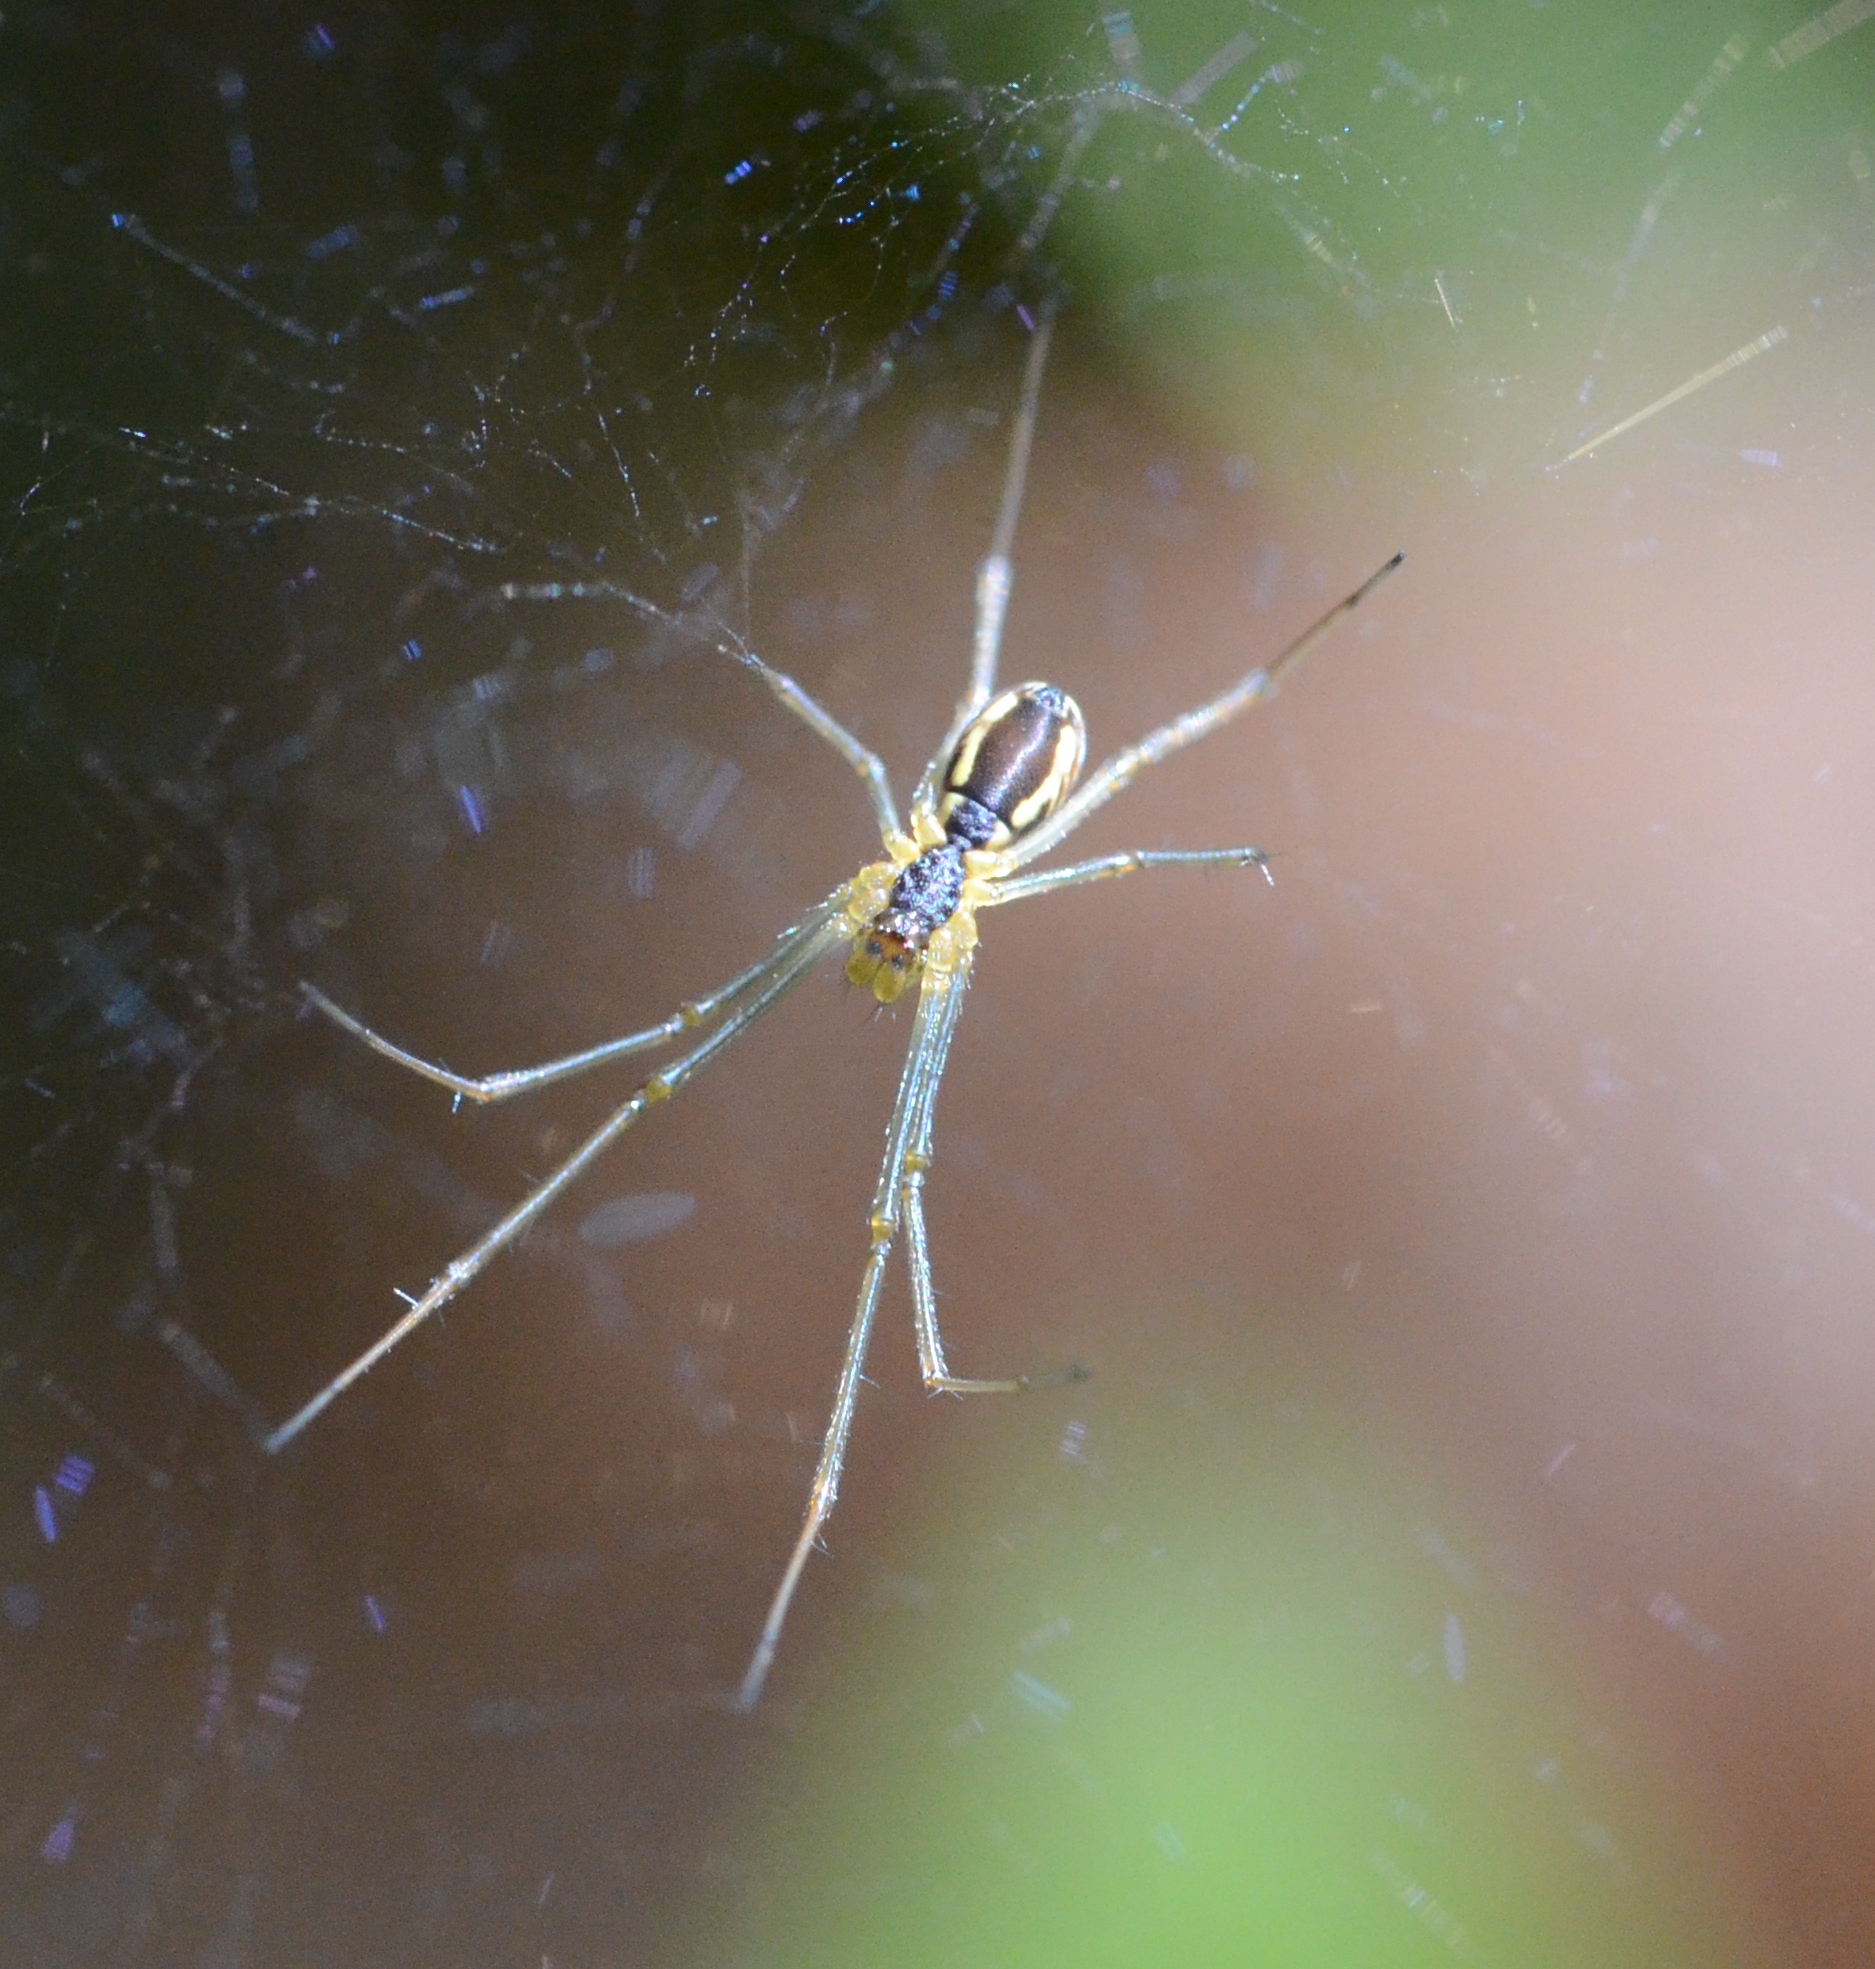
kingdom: Animalia
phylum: Arthropoda
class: Arachnida
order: Araneae
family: Linyphiidae
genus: Neriene
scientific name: Neriene radiata
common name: Filmy dome spider
